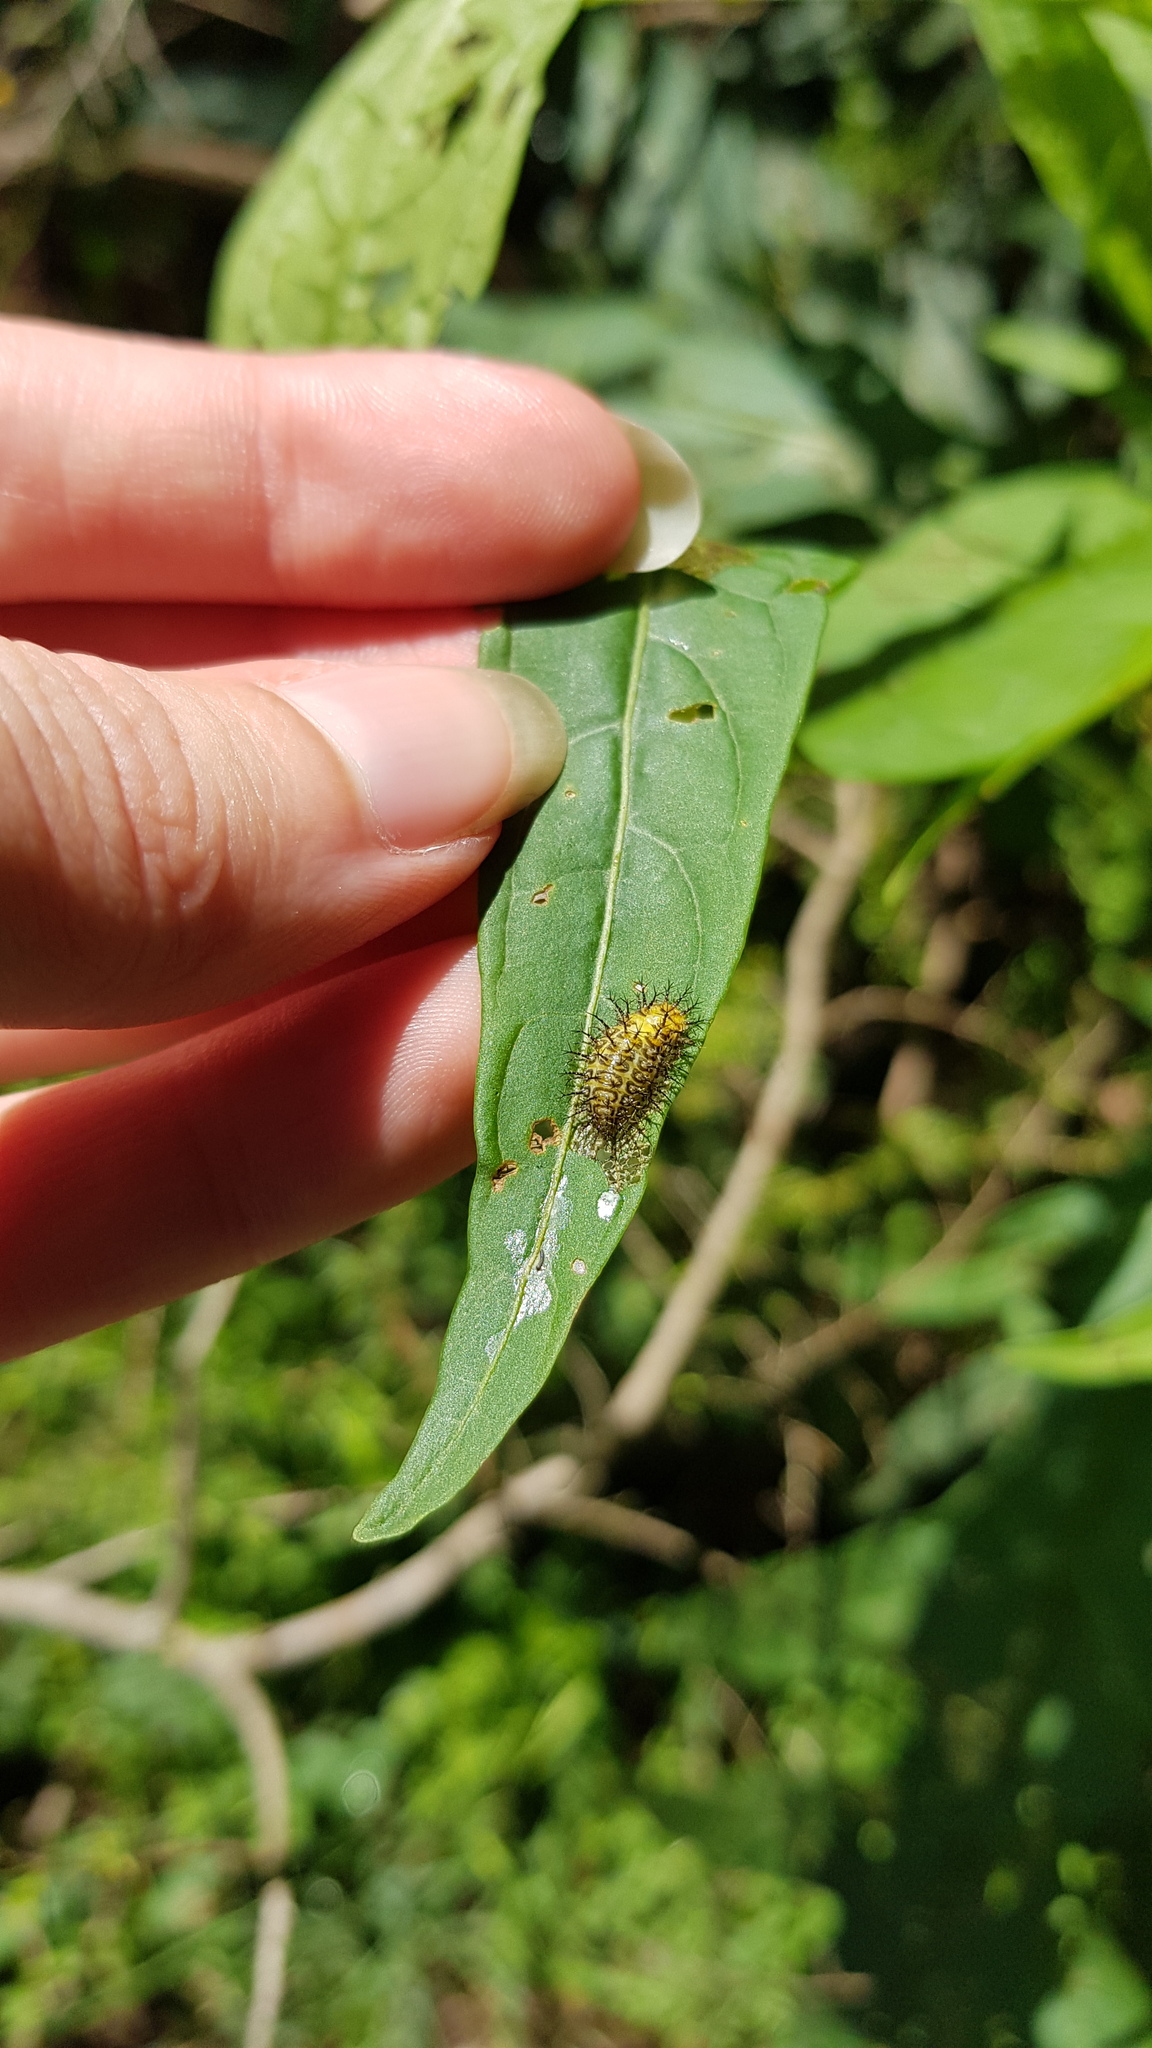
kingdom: Animalia
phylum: Arthropoda
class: Insecta
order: Coleoptera
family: Coccinellidae
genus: Henosepilachna
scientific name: Henosepilachna vigintioctopunctata
